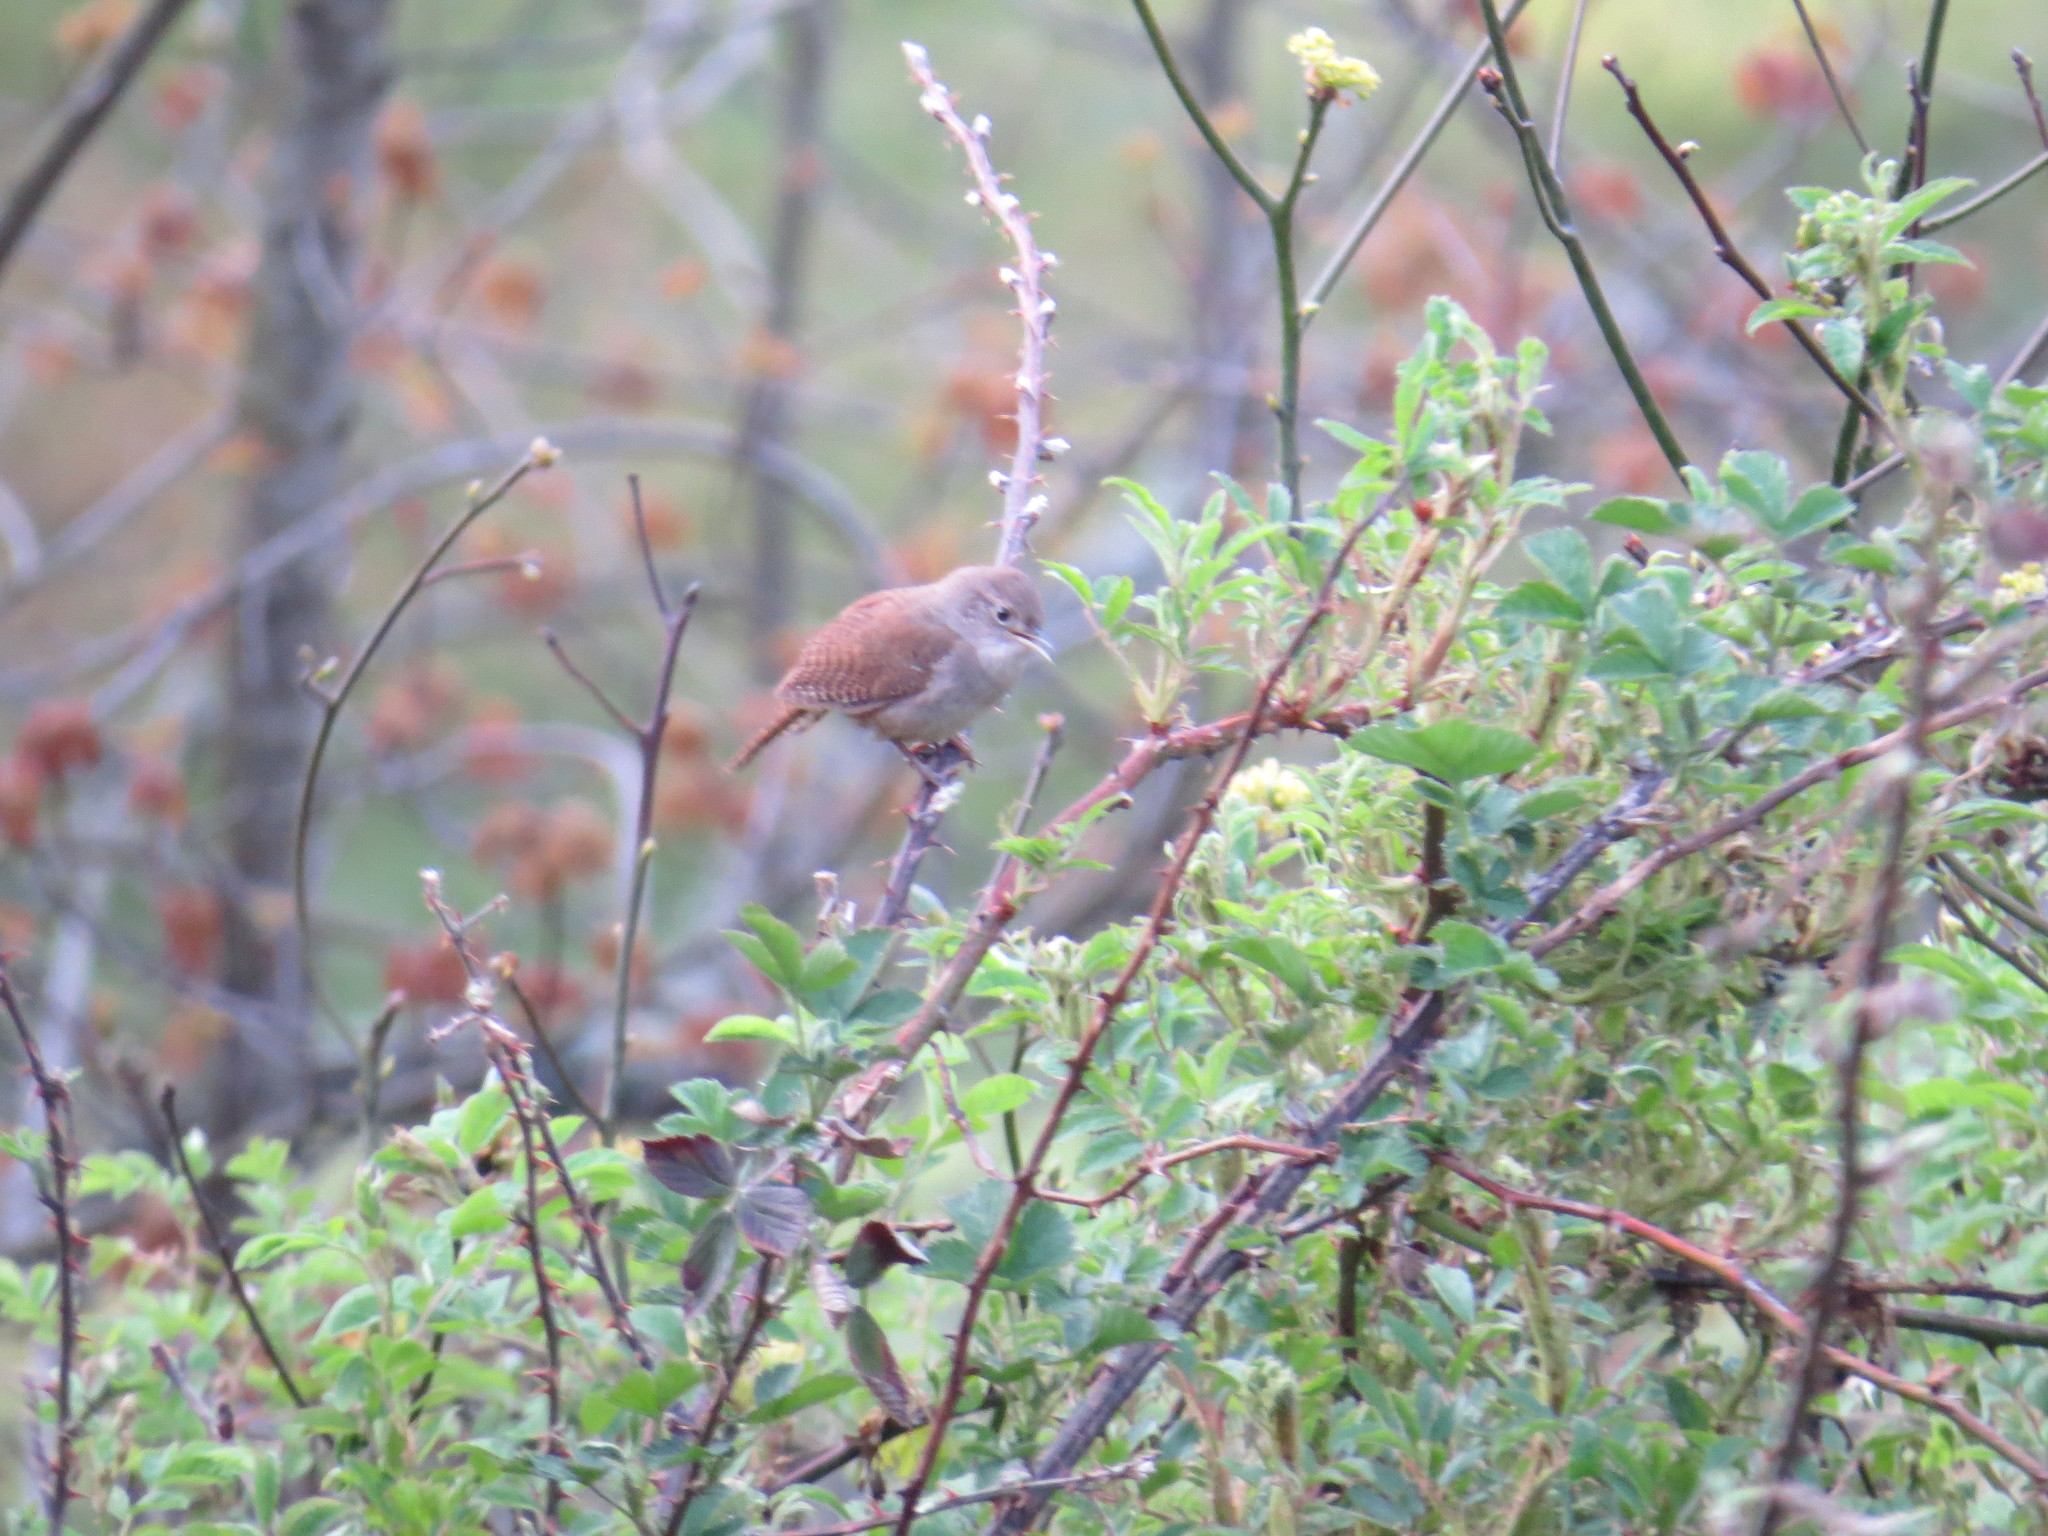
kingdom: Animalia
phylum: Chordata
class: Aves
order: Passeriformes
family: Troglodytidae
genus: Troglodytes
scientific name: Troglodytes aedon
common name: House wren
